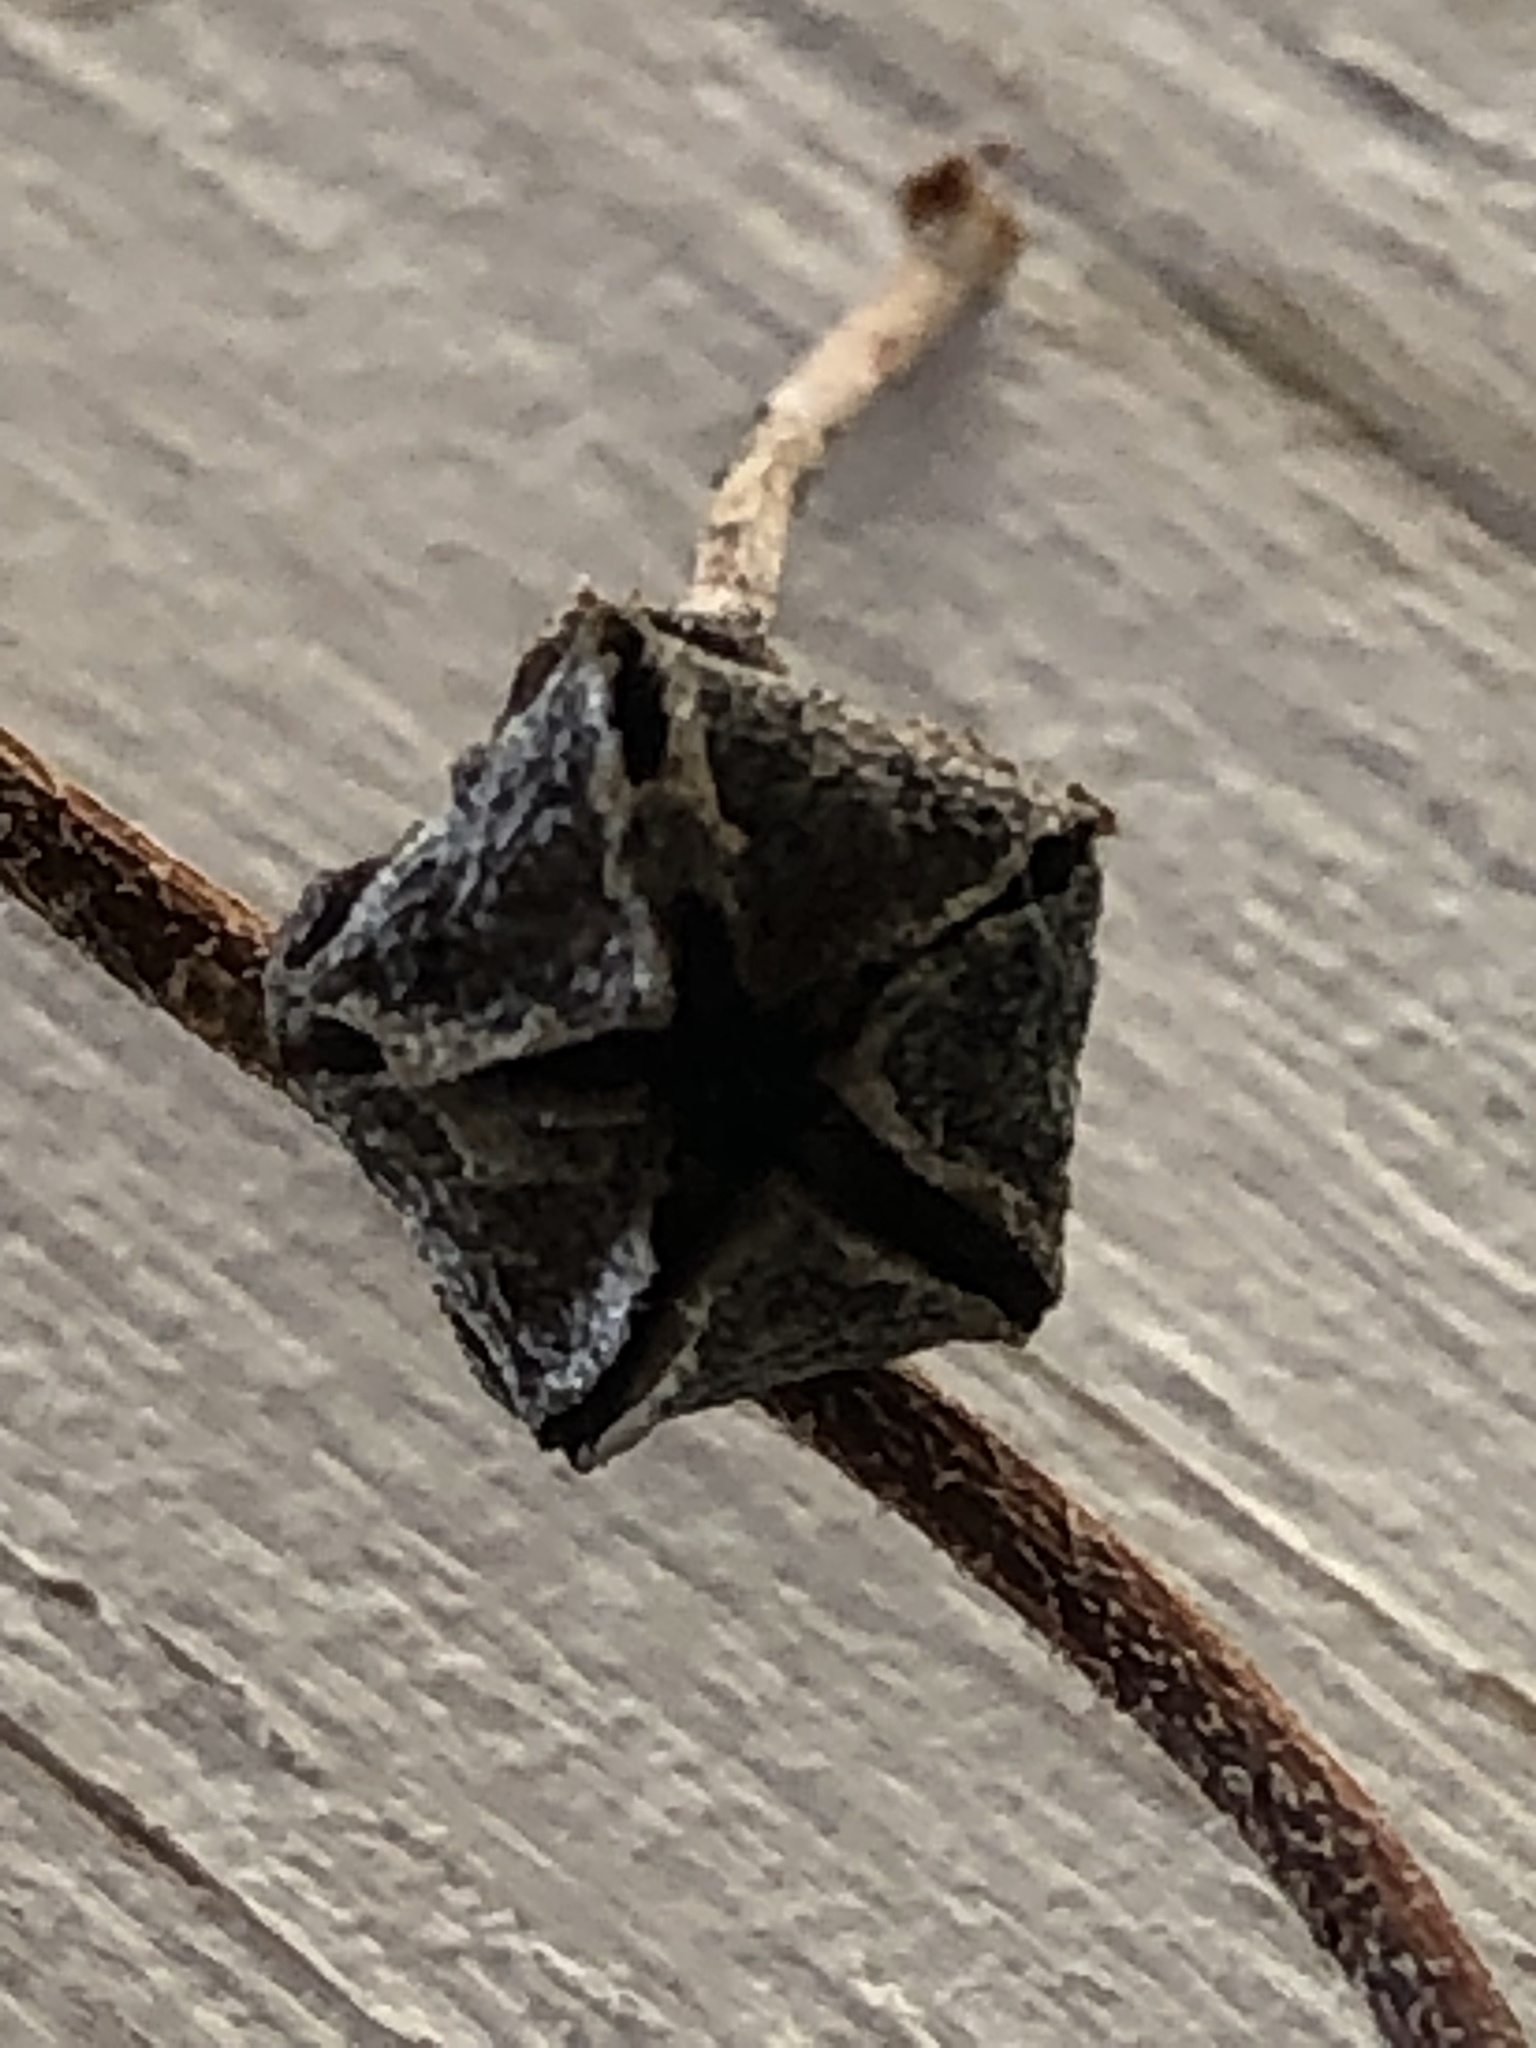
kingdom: Plantae
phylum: Tracheophyta
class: Magnoliopsida
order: Caryophyllales
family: Aizoaceae
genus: Drosanthemum
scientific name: Drosanthemum calcareum
